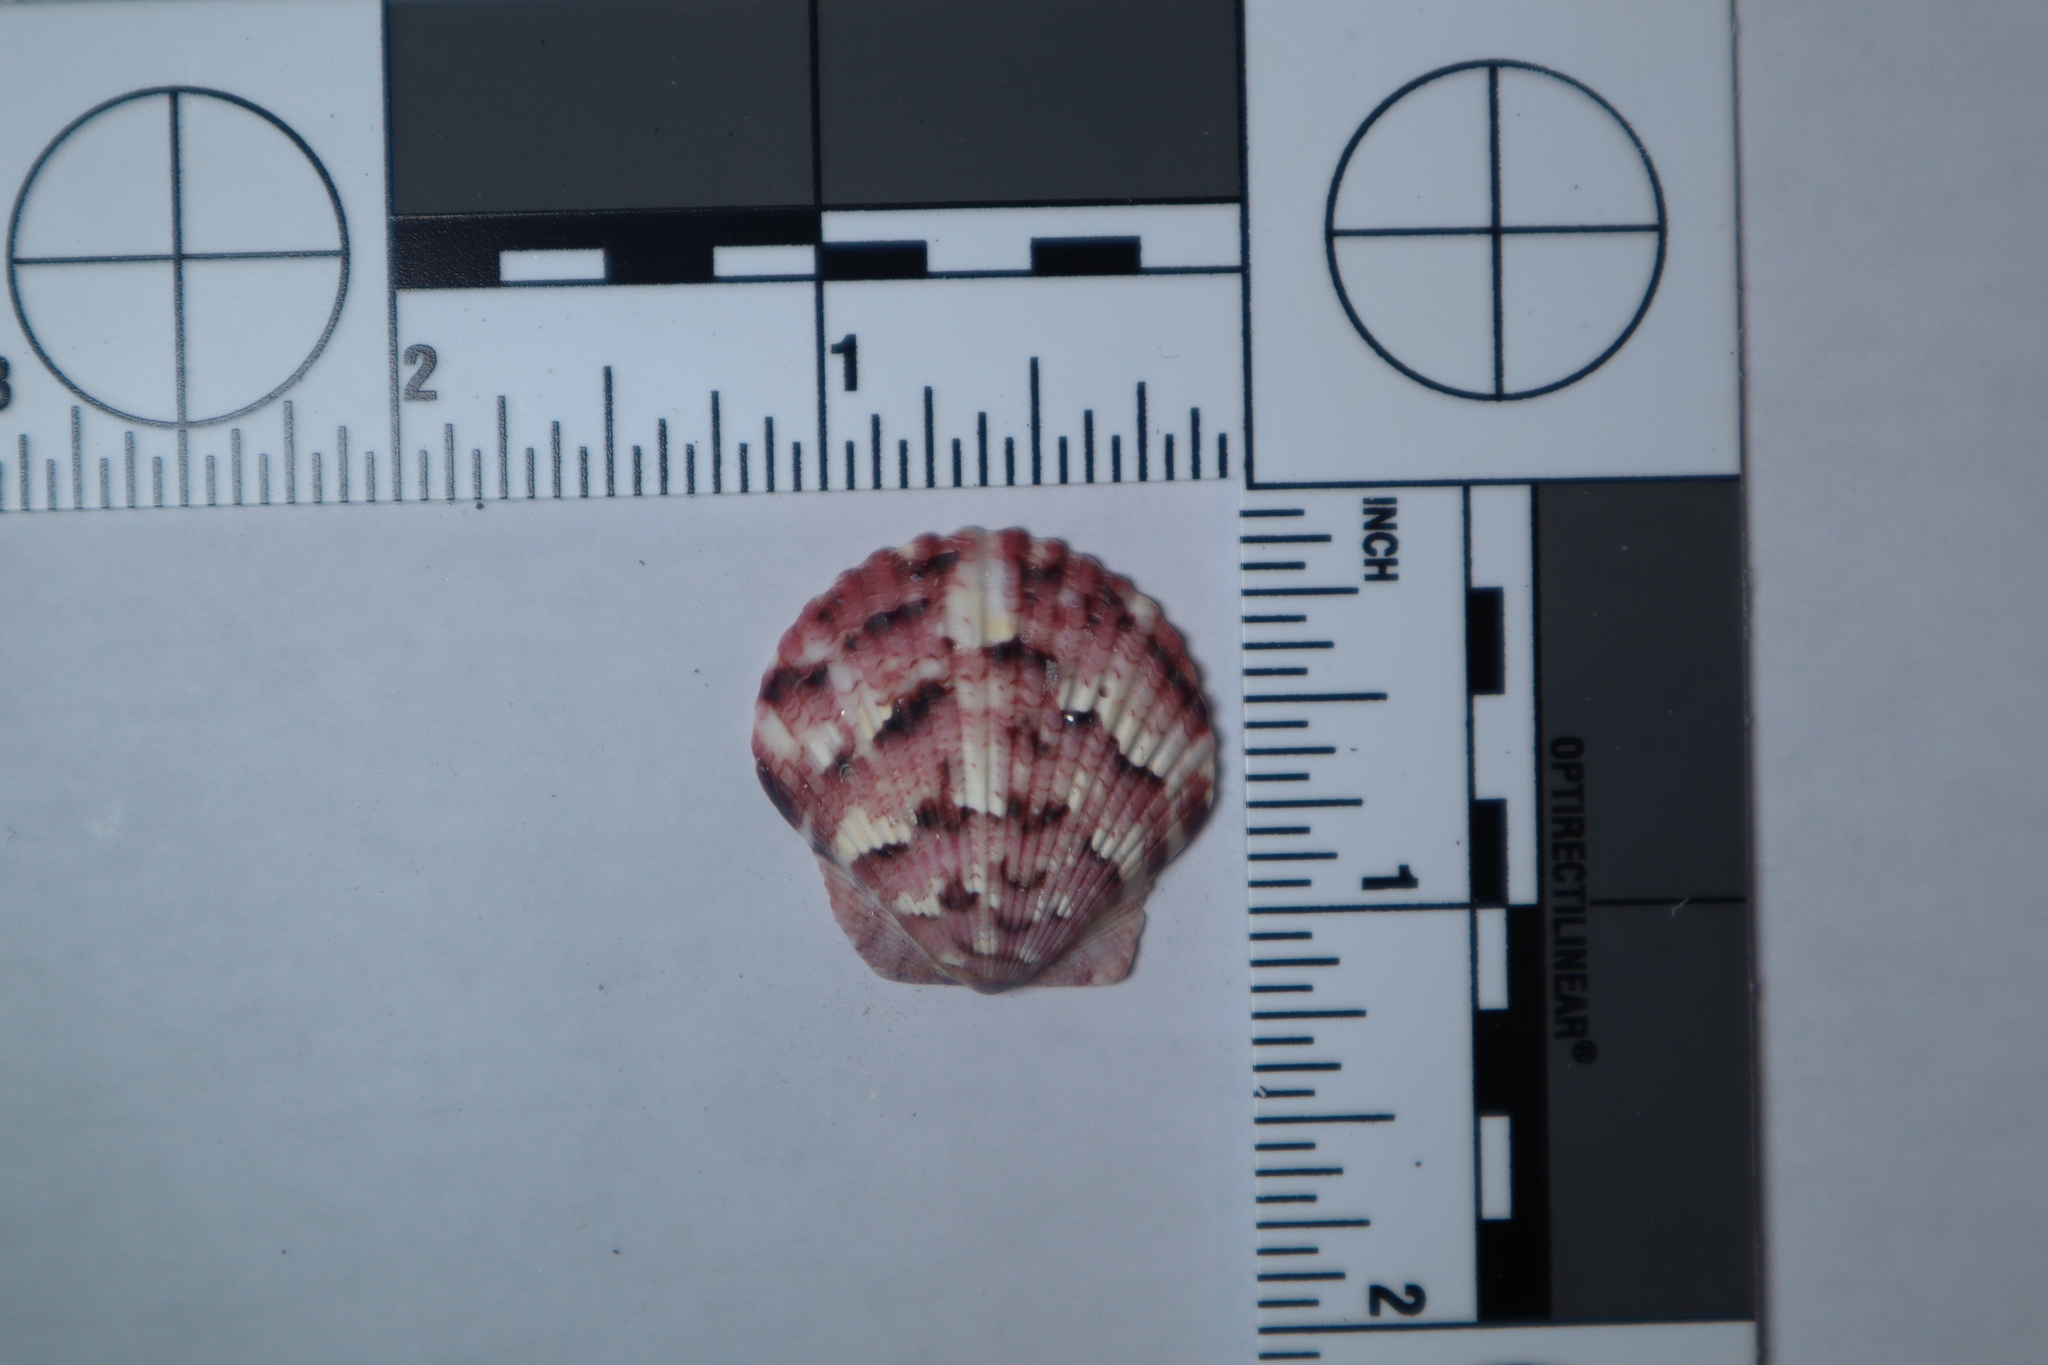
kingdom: Animalia
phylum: Mollusca
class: Bivalvia
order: Pectinida
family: Pectinidae
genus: Argopecten
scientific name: Argopecten gibbus
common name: Atlantic calico scallop
